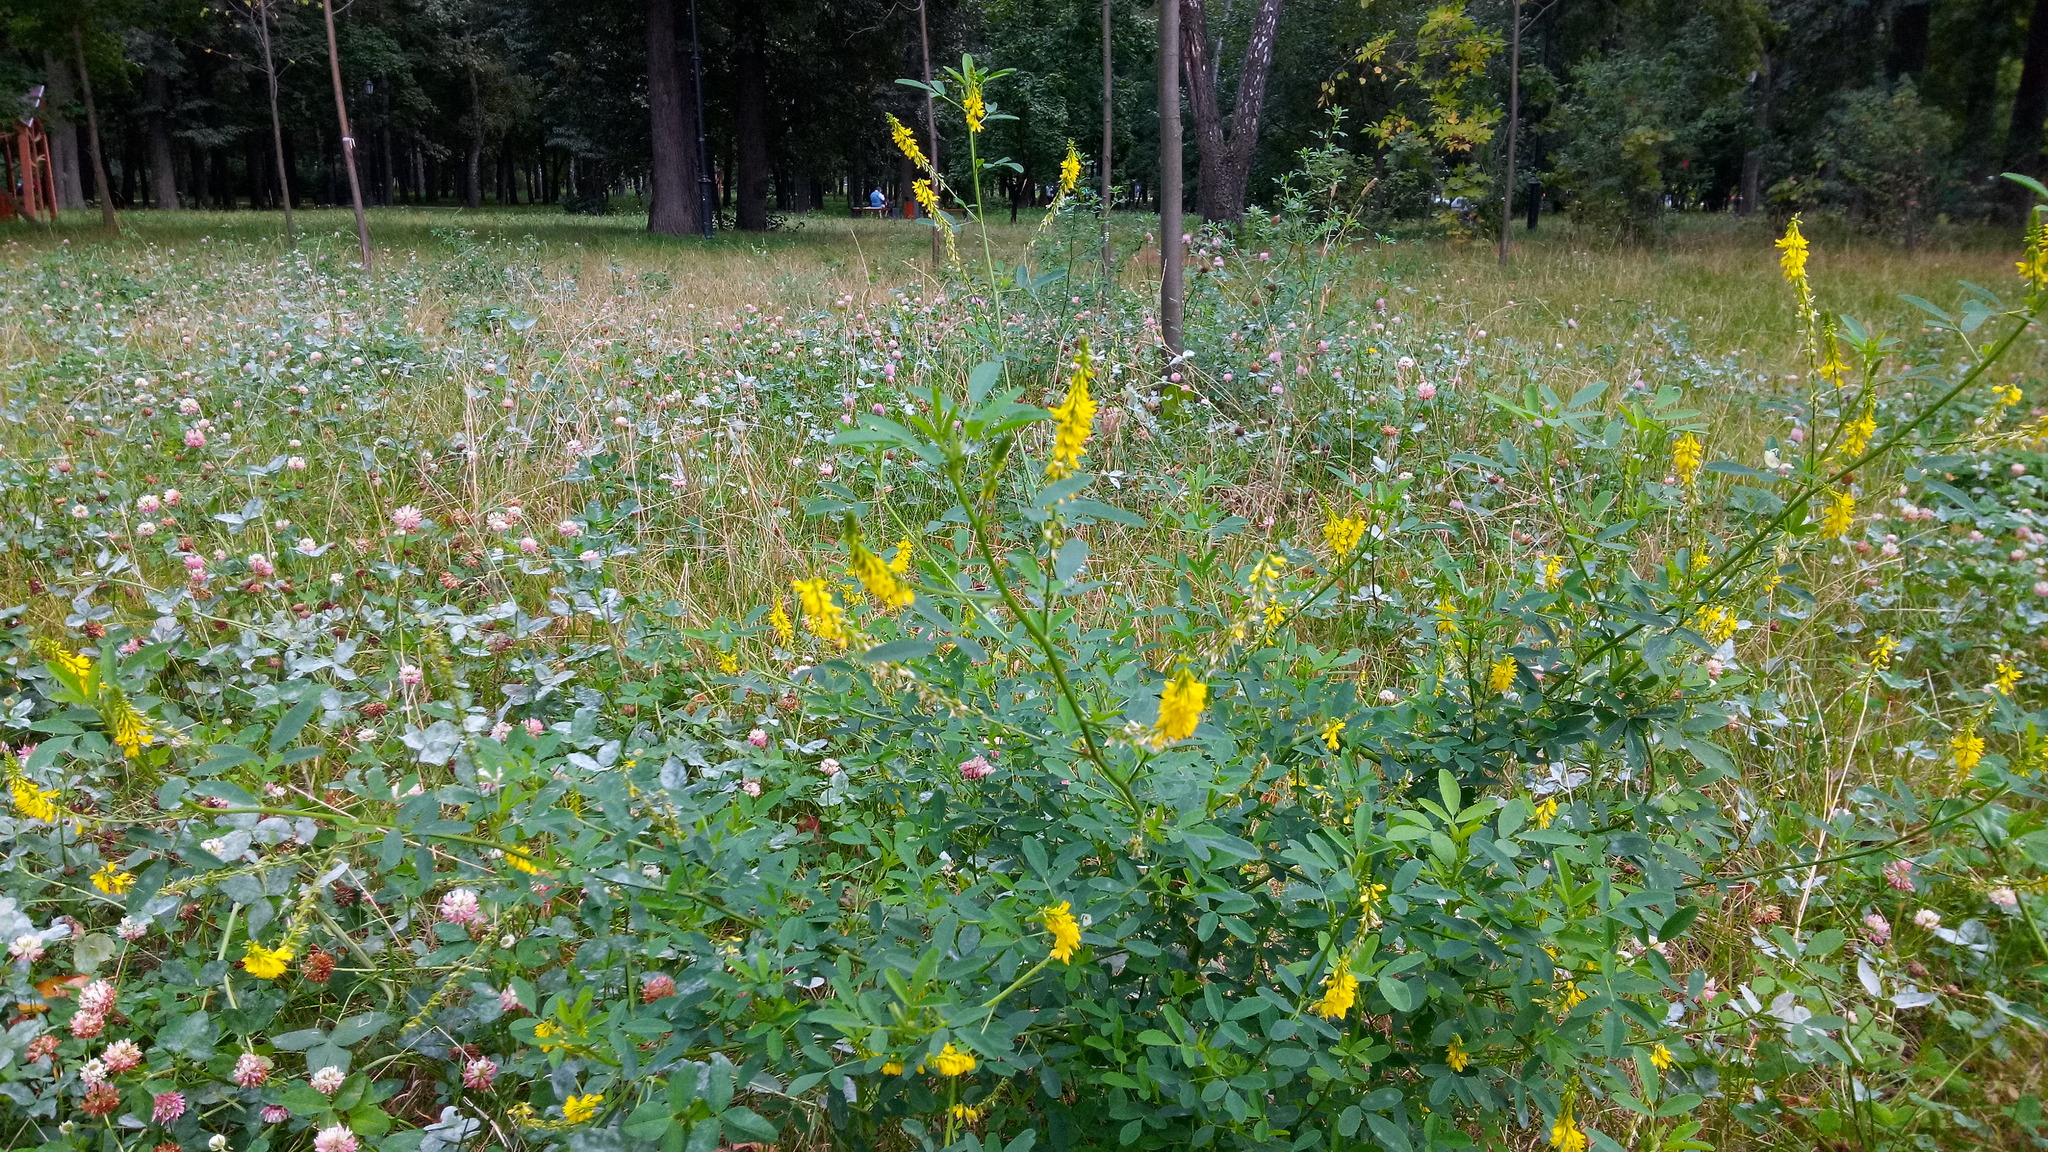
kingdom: Plantae
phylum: Tracheophyta
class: Magnoliopsida
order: Fabales
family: Fabaceae
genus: Melilotus
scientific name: Melilotus officinalis
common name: Sweetclover
